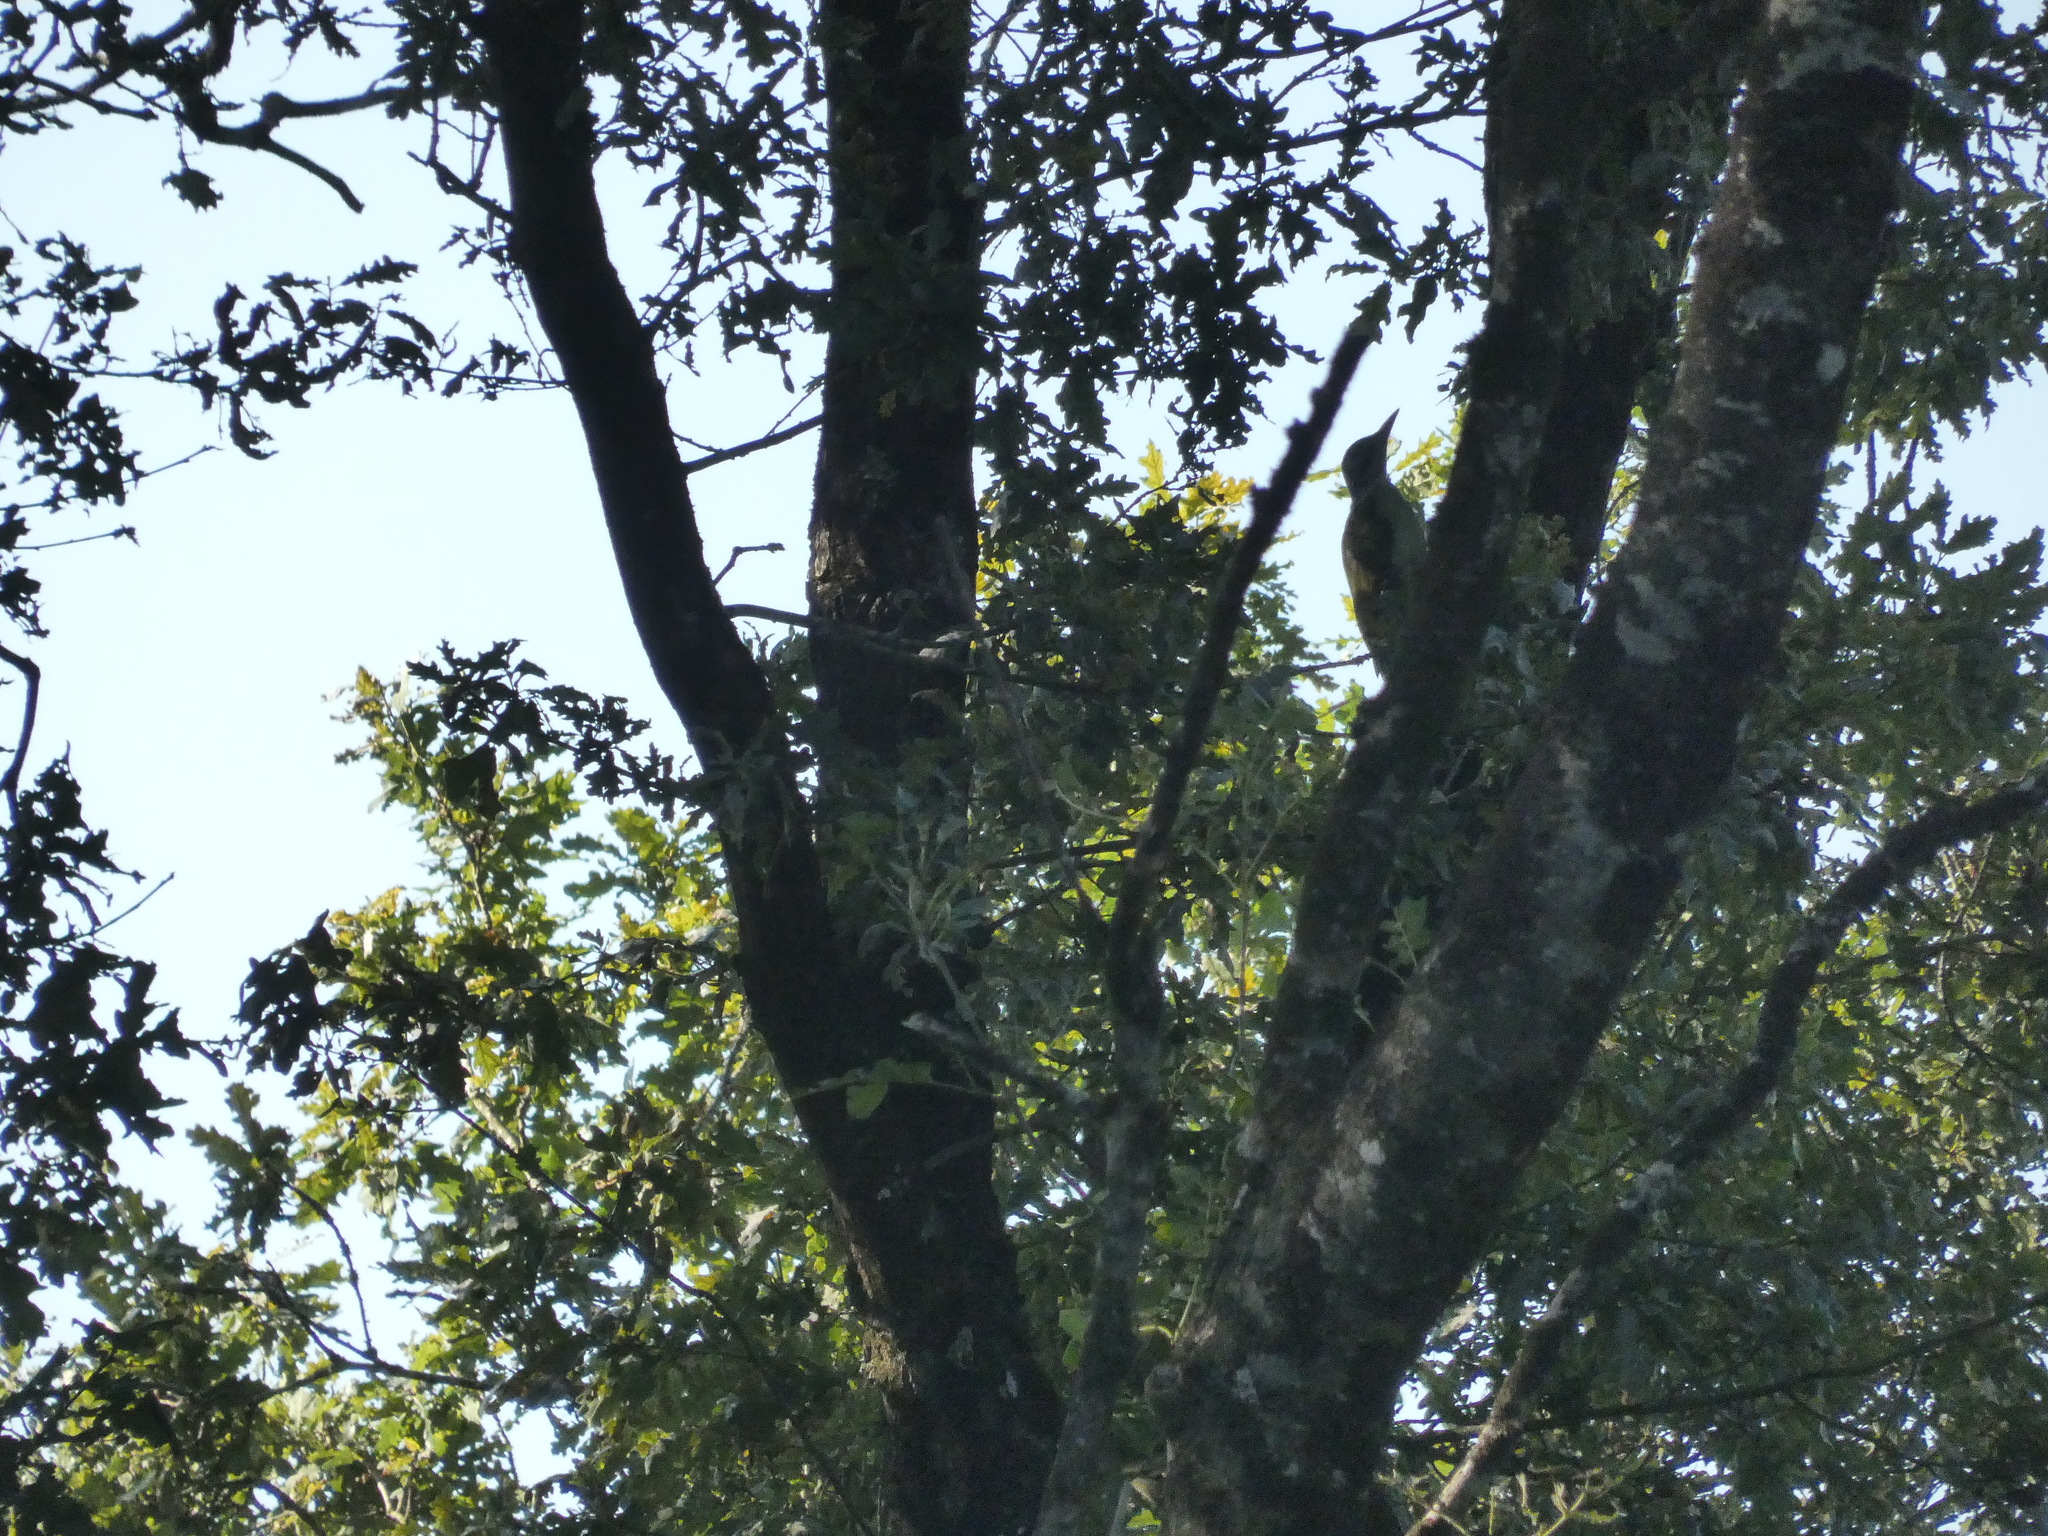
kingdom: Animalia
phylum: Chordata
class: Aves
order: Piciformes
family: Picidae
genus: Picus
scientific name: Picus viridis
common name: European green woodpecker
